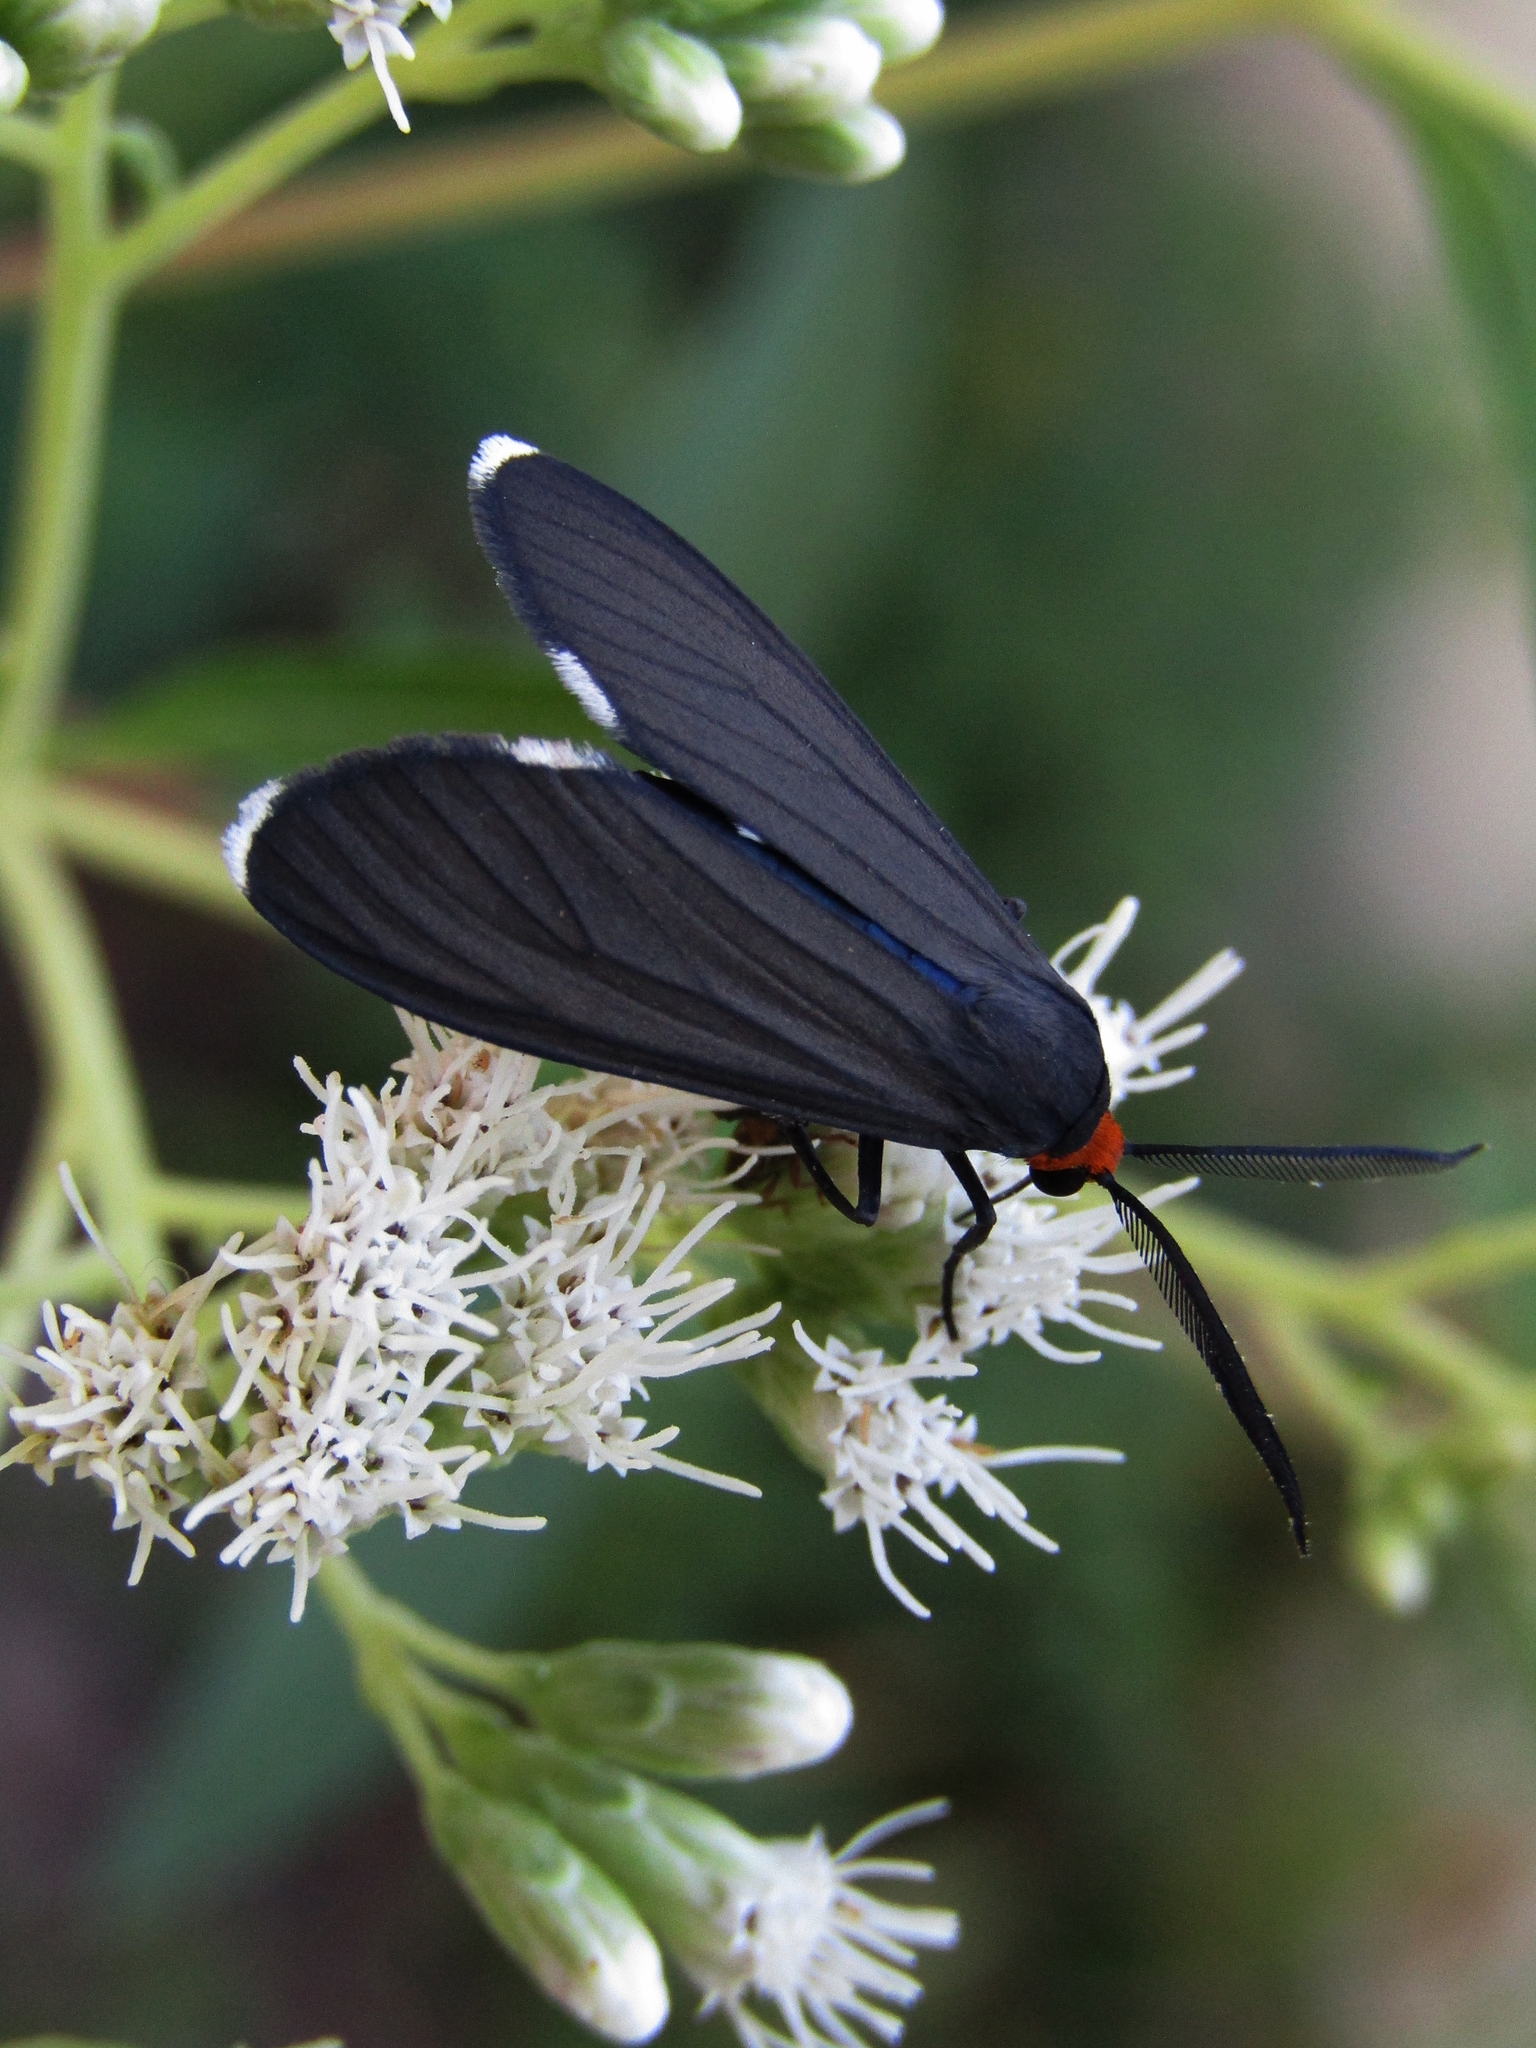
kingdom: Animalia
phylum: Arthropoda
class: Insecta
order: Lepidoptera
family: Erebidae
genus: Ctenucha
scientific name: Ctenucha rubriceps
